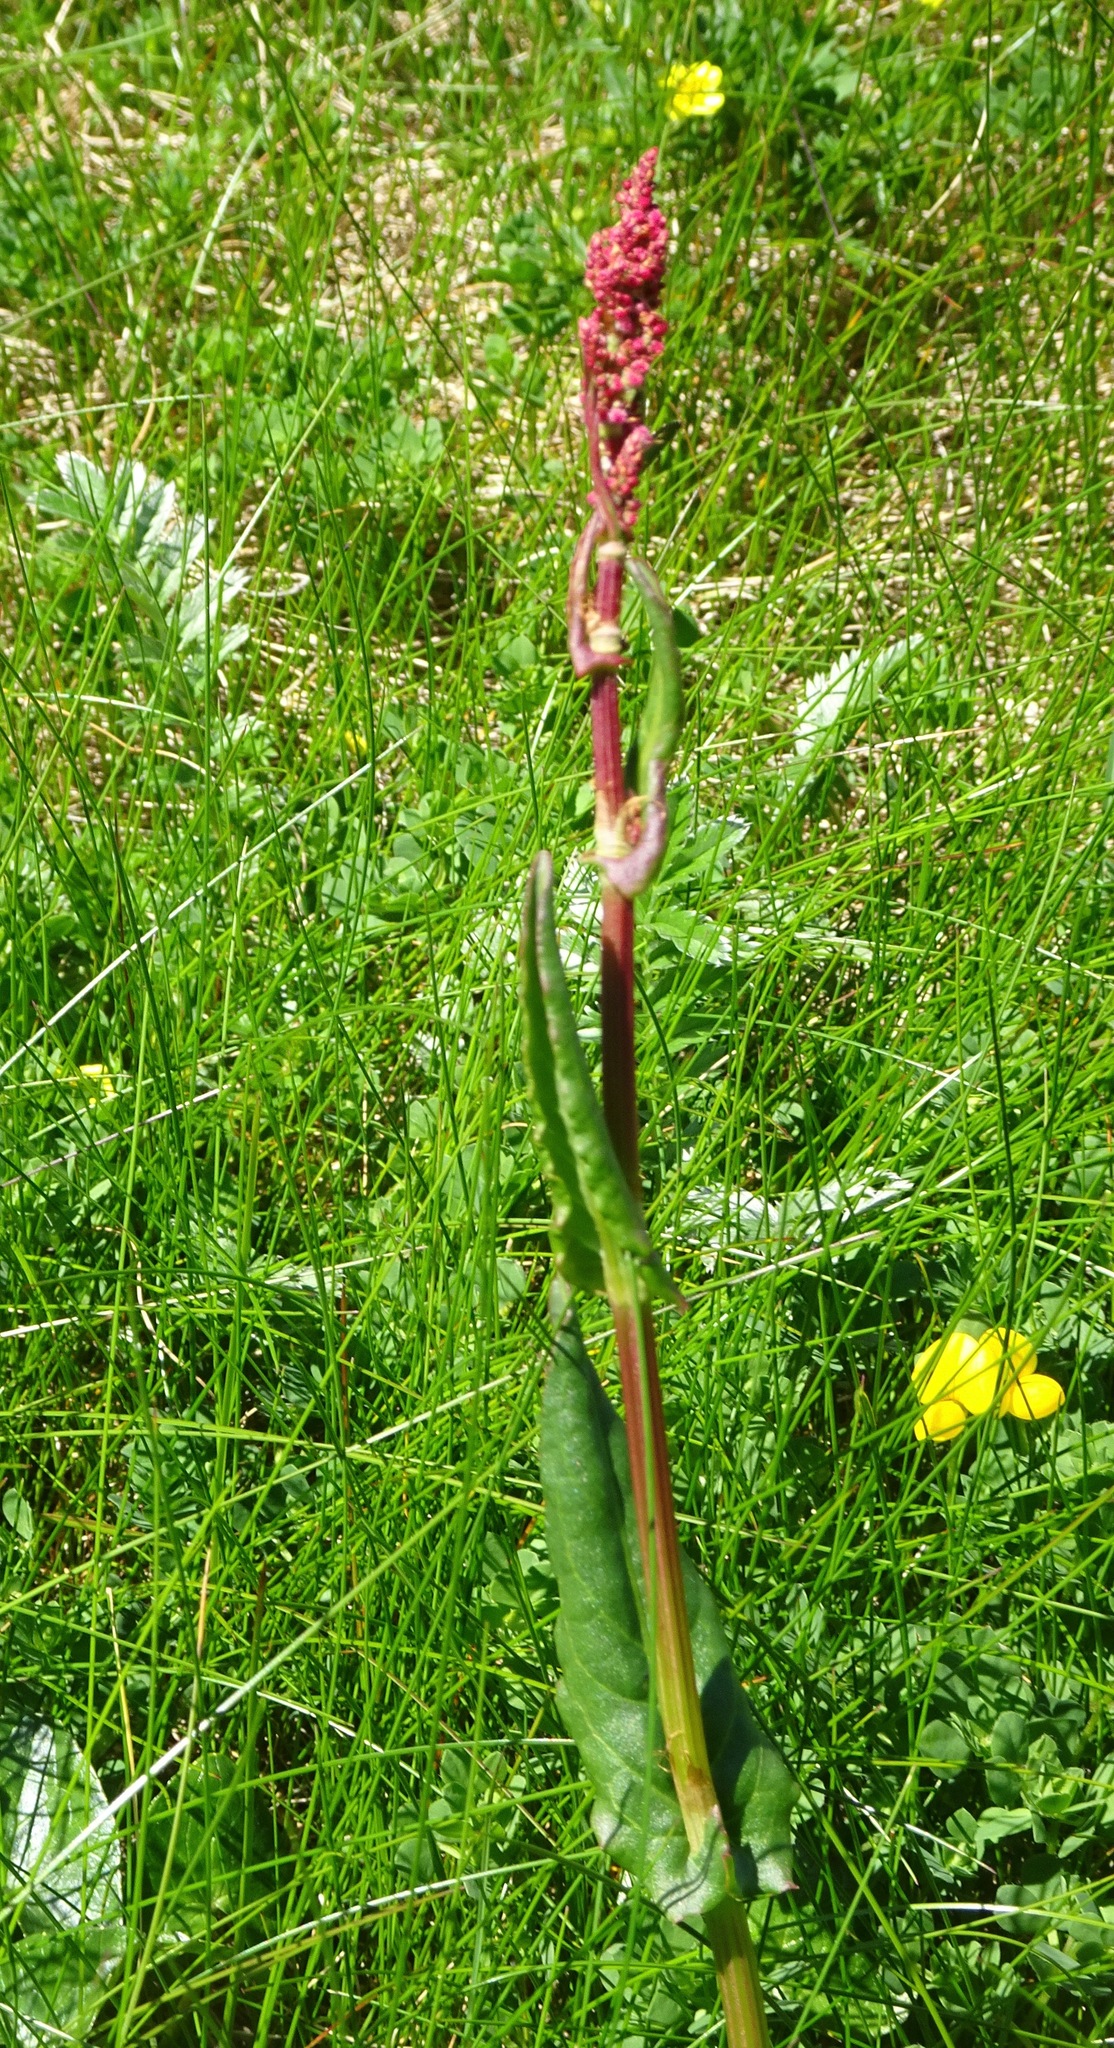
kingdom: Plantae
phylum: Tracheophyta
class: Magnoliopsida
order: Caryophyllales
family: Polygonaceae
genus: Rumex
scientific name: Rumex acetosa
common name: Garden sorrel
